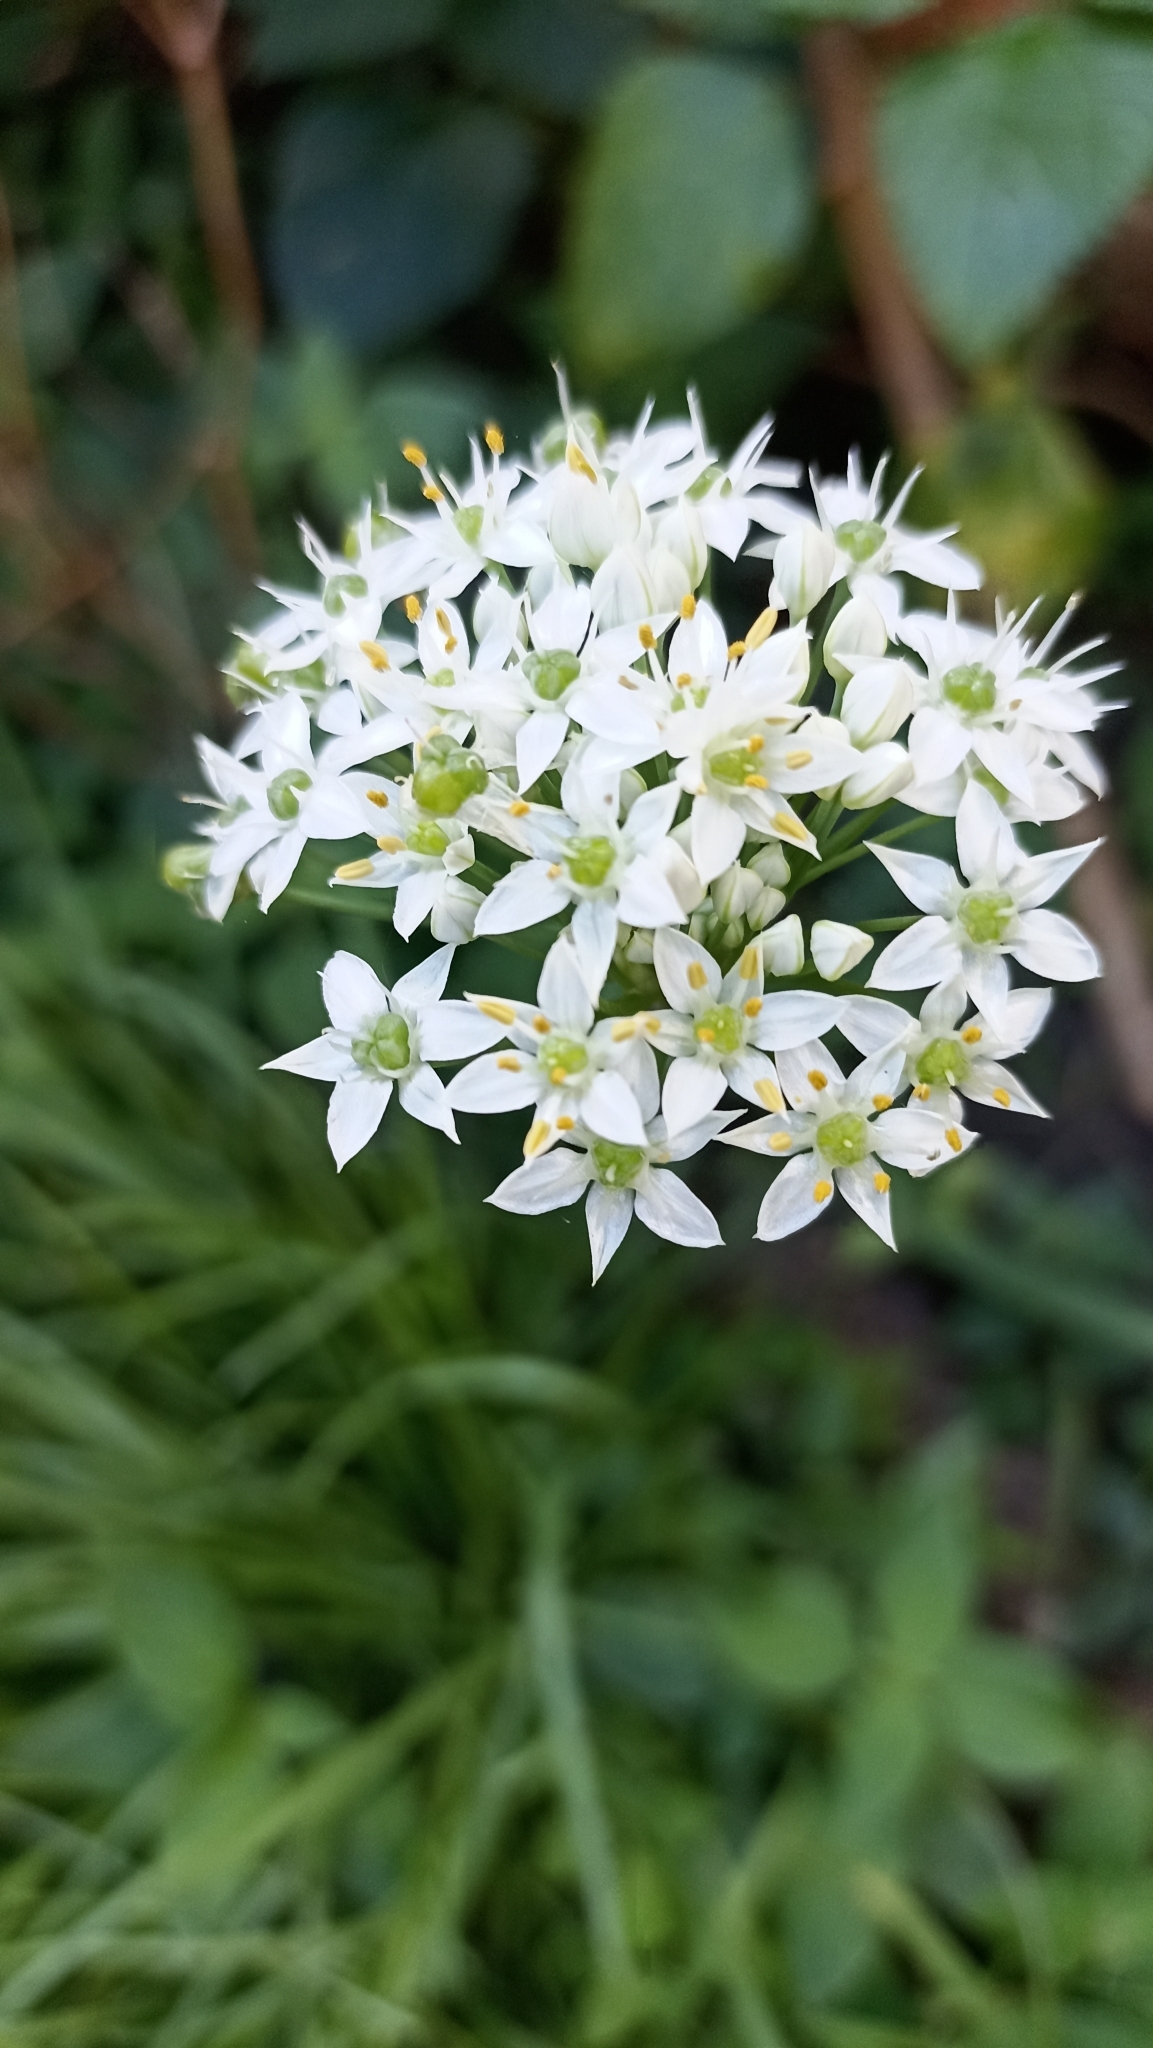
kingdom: Plantae
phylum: Tracheophyta
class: Liliopsida
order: Asparagales
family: Amaryllidaceae
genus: Allium
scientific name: Allium tuberosum
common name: Chinese chives
